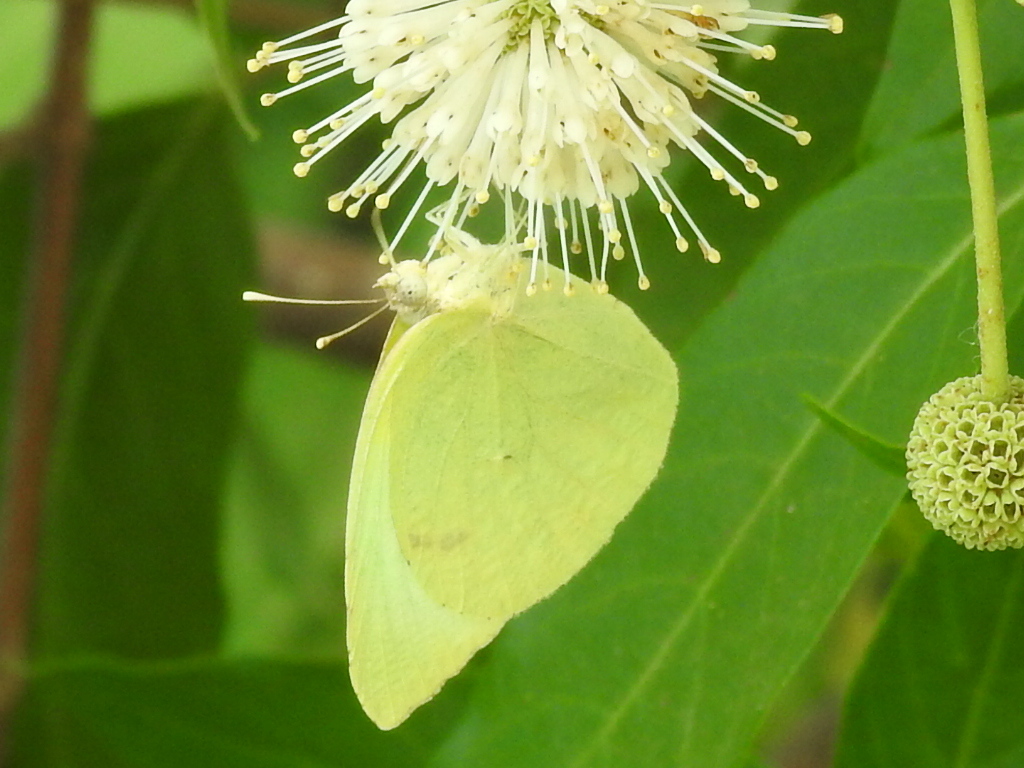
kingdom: Animalia
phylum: Arthropoda
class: Insecta
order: Lepidoptera
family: Pieridae
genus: Kricogonia
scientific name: Kricogonia lyside
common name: Guayacan sulphur,
